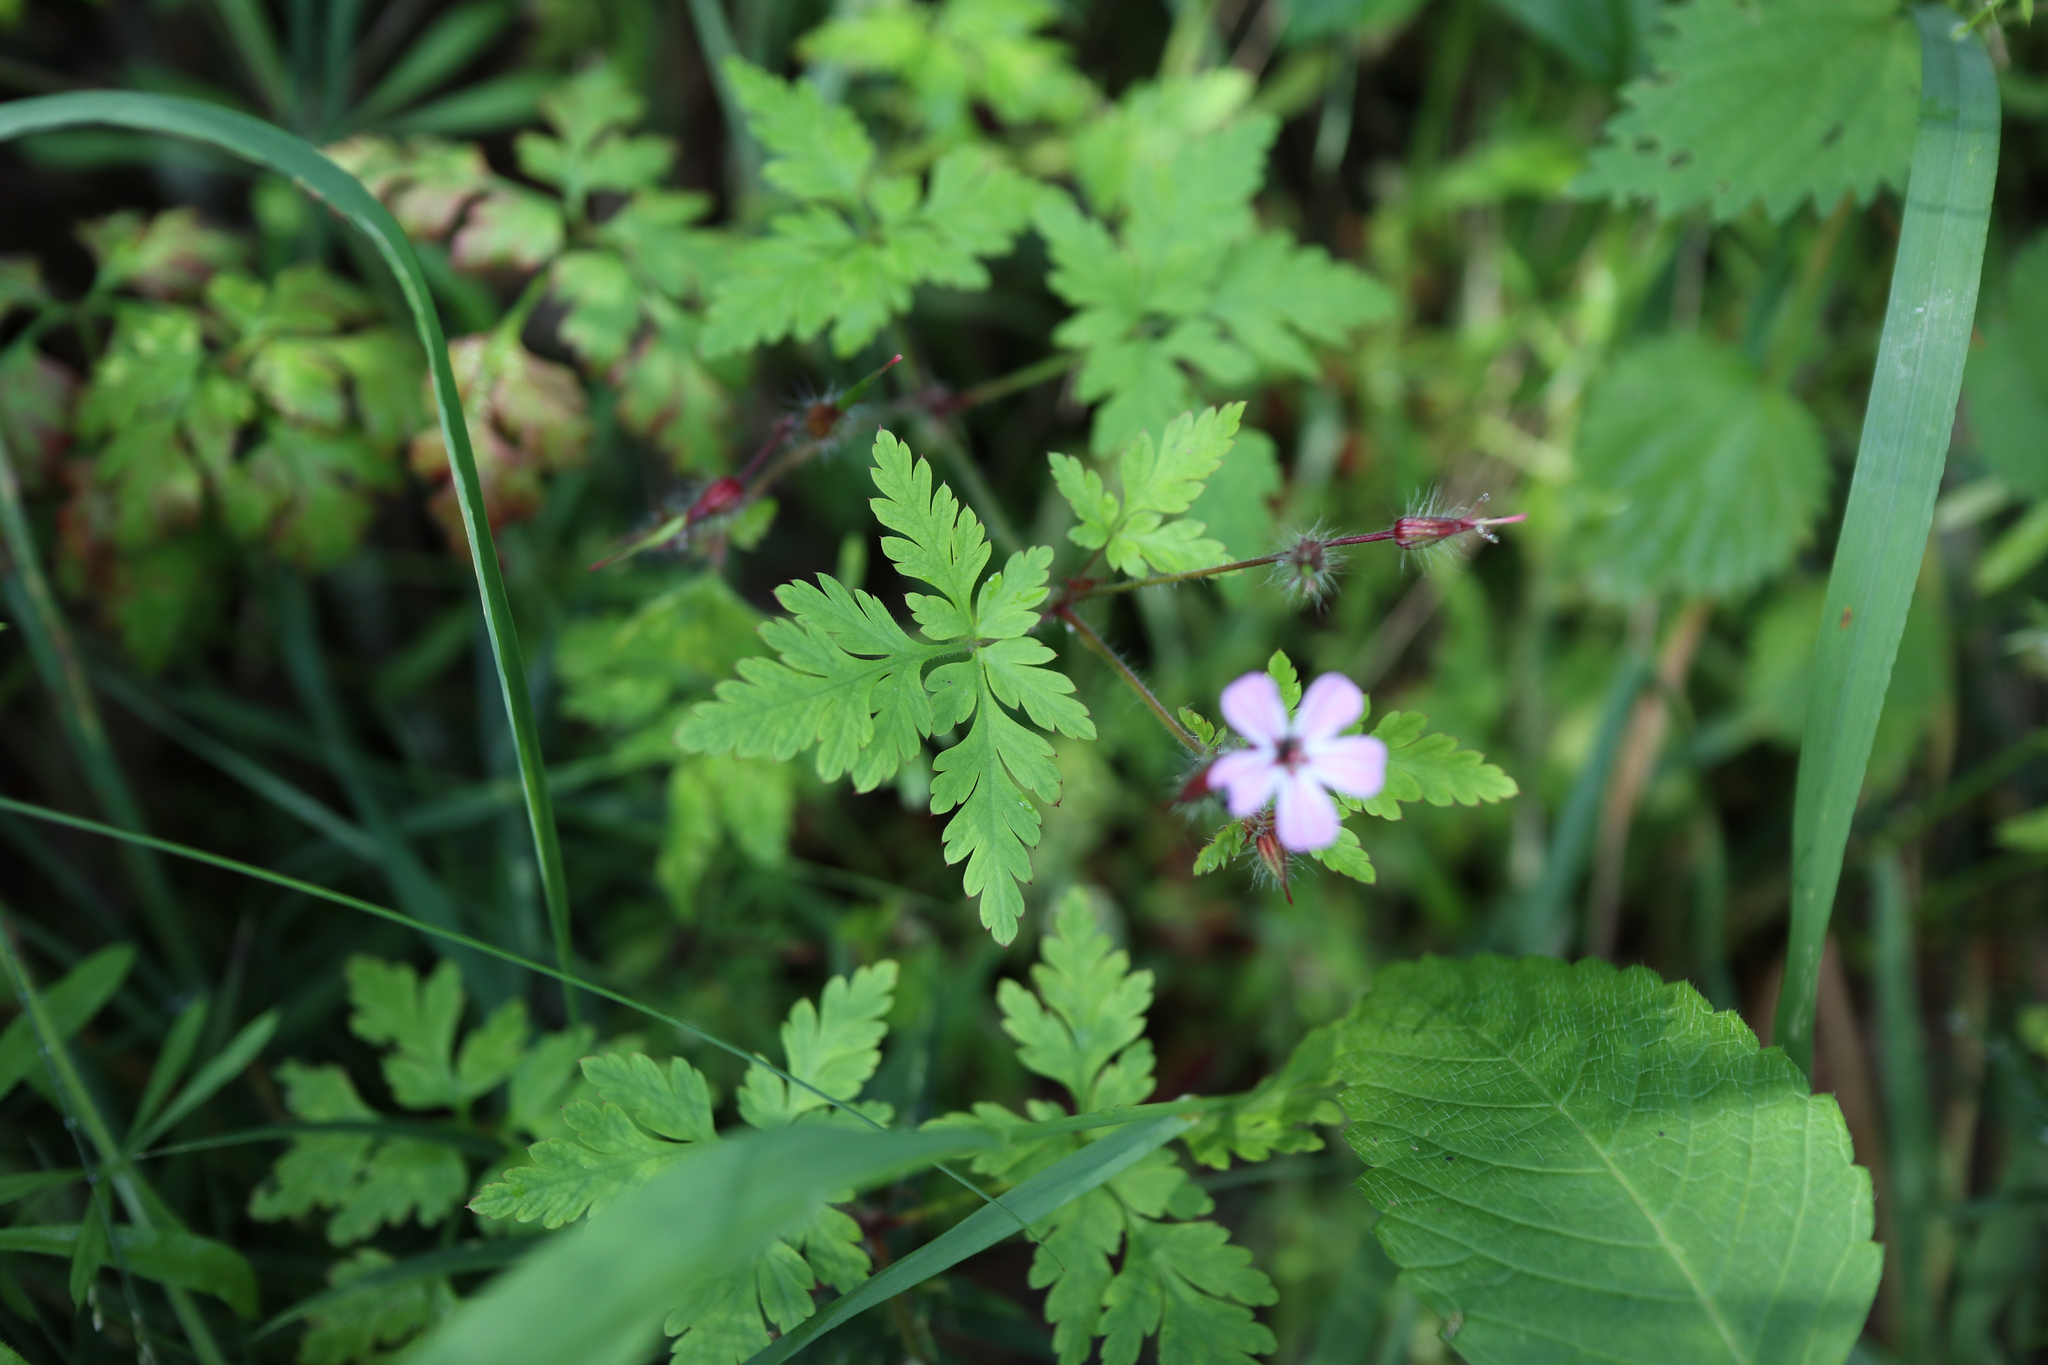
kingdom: Plantae
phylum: Tracheophyta
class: Magnoliopsida
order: Geraniales
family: Geraniaceae
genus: Geranium
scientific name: Geranium robertianum
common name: Herb-robert
